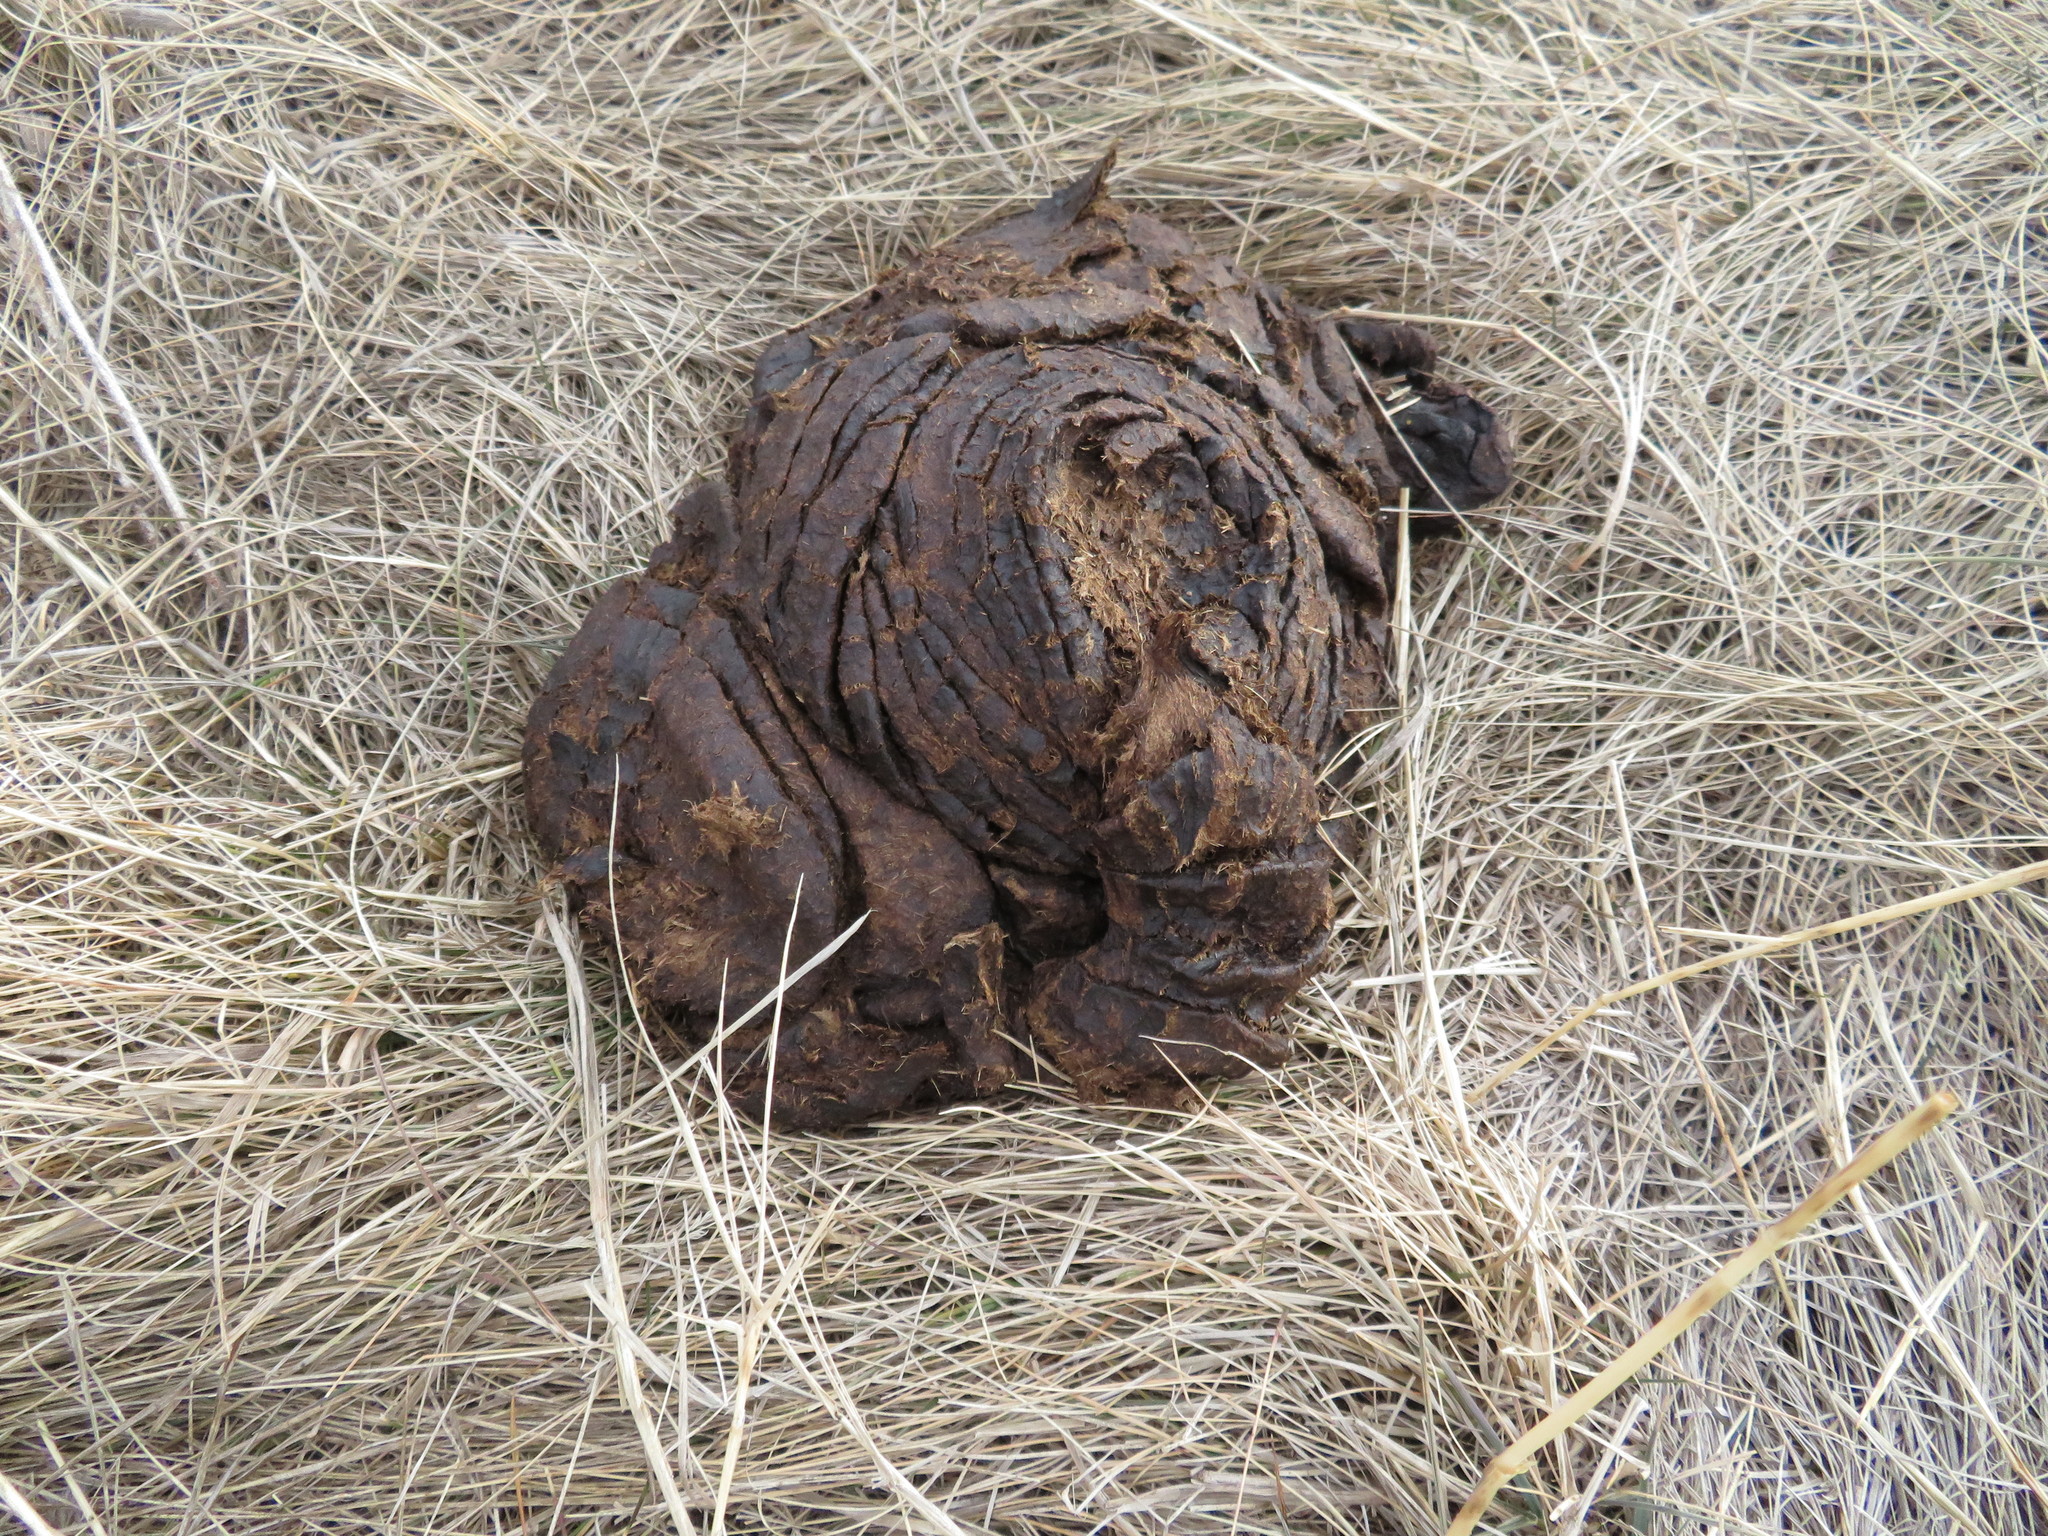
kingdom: Animalia
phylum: Chordata
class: Mammalia
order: Artiodactyla
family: Bovidae
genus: Bison
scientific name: Bison bison
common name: American bison
